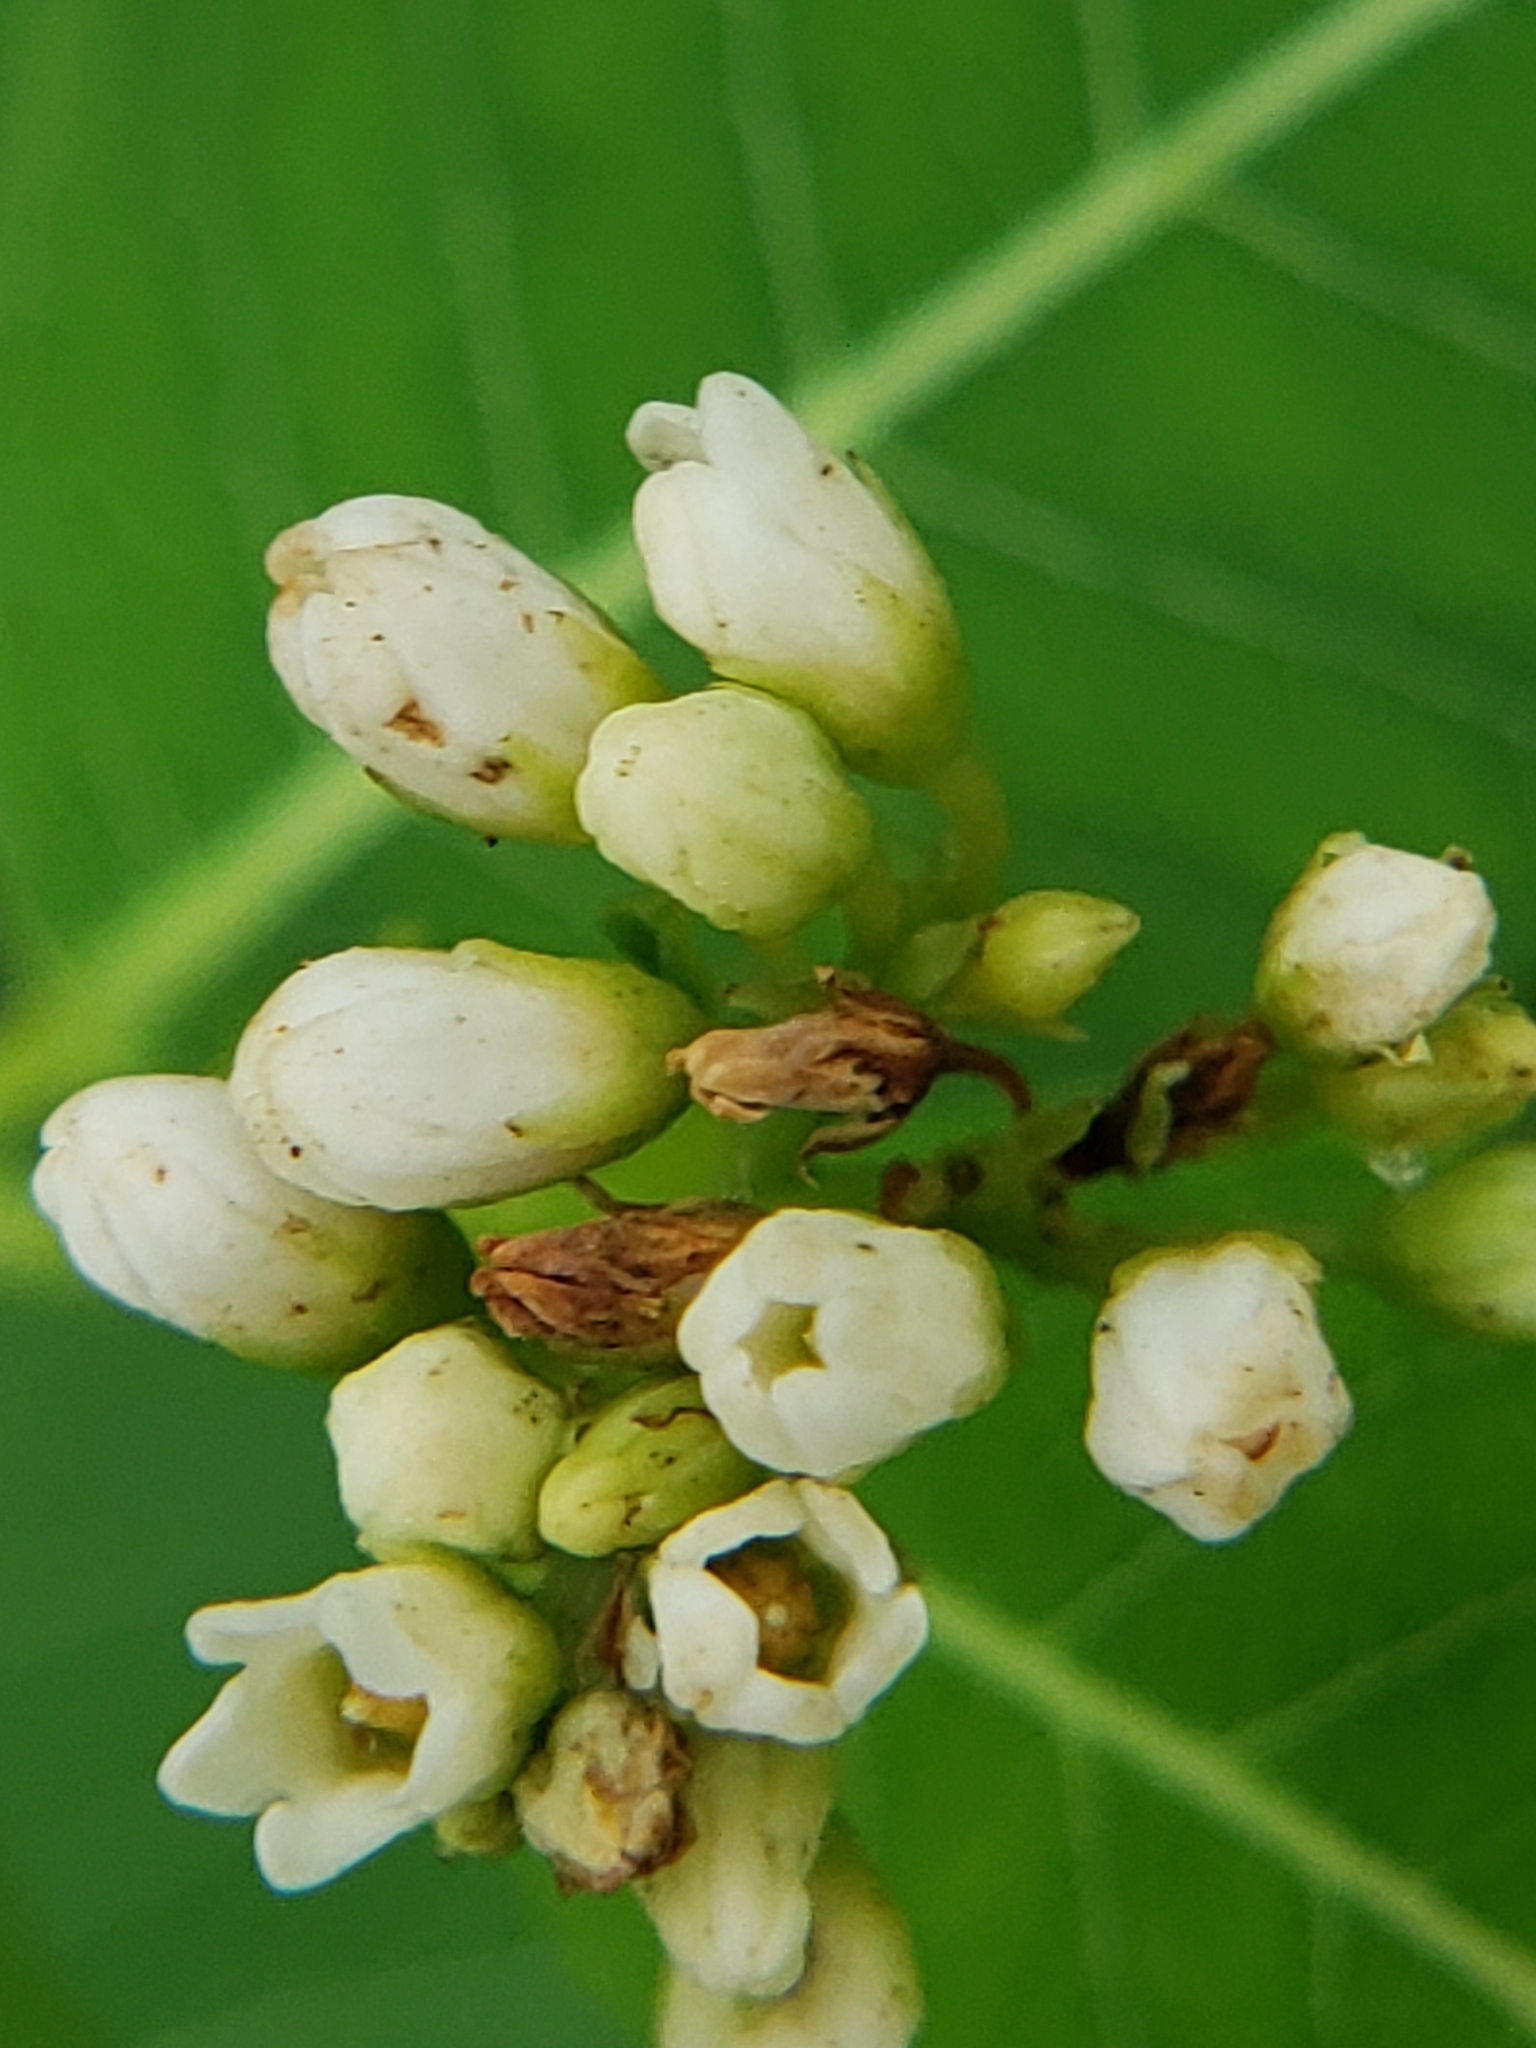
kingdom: Plantae
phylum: Tracheophyta
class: Magnoliopsida
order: Gentianales
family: Apocynaceae
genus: Apocynum
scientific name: Apocynum cannabinum
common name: Hemp dogbane
